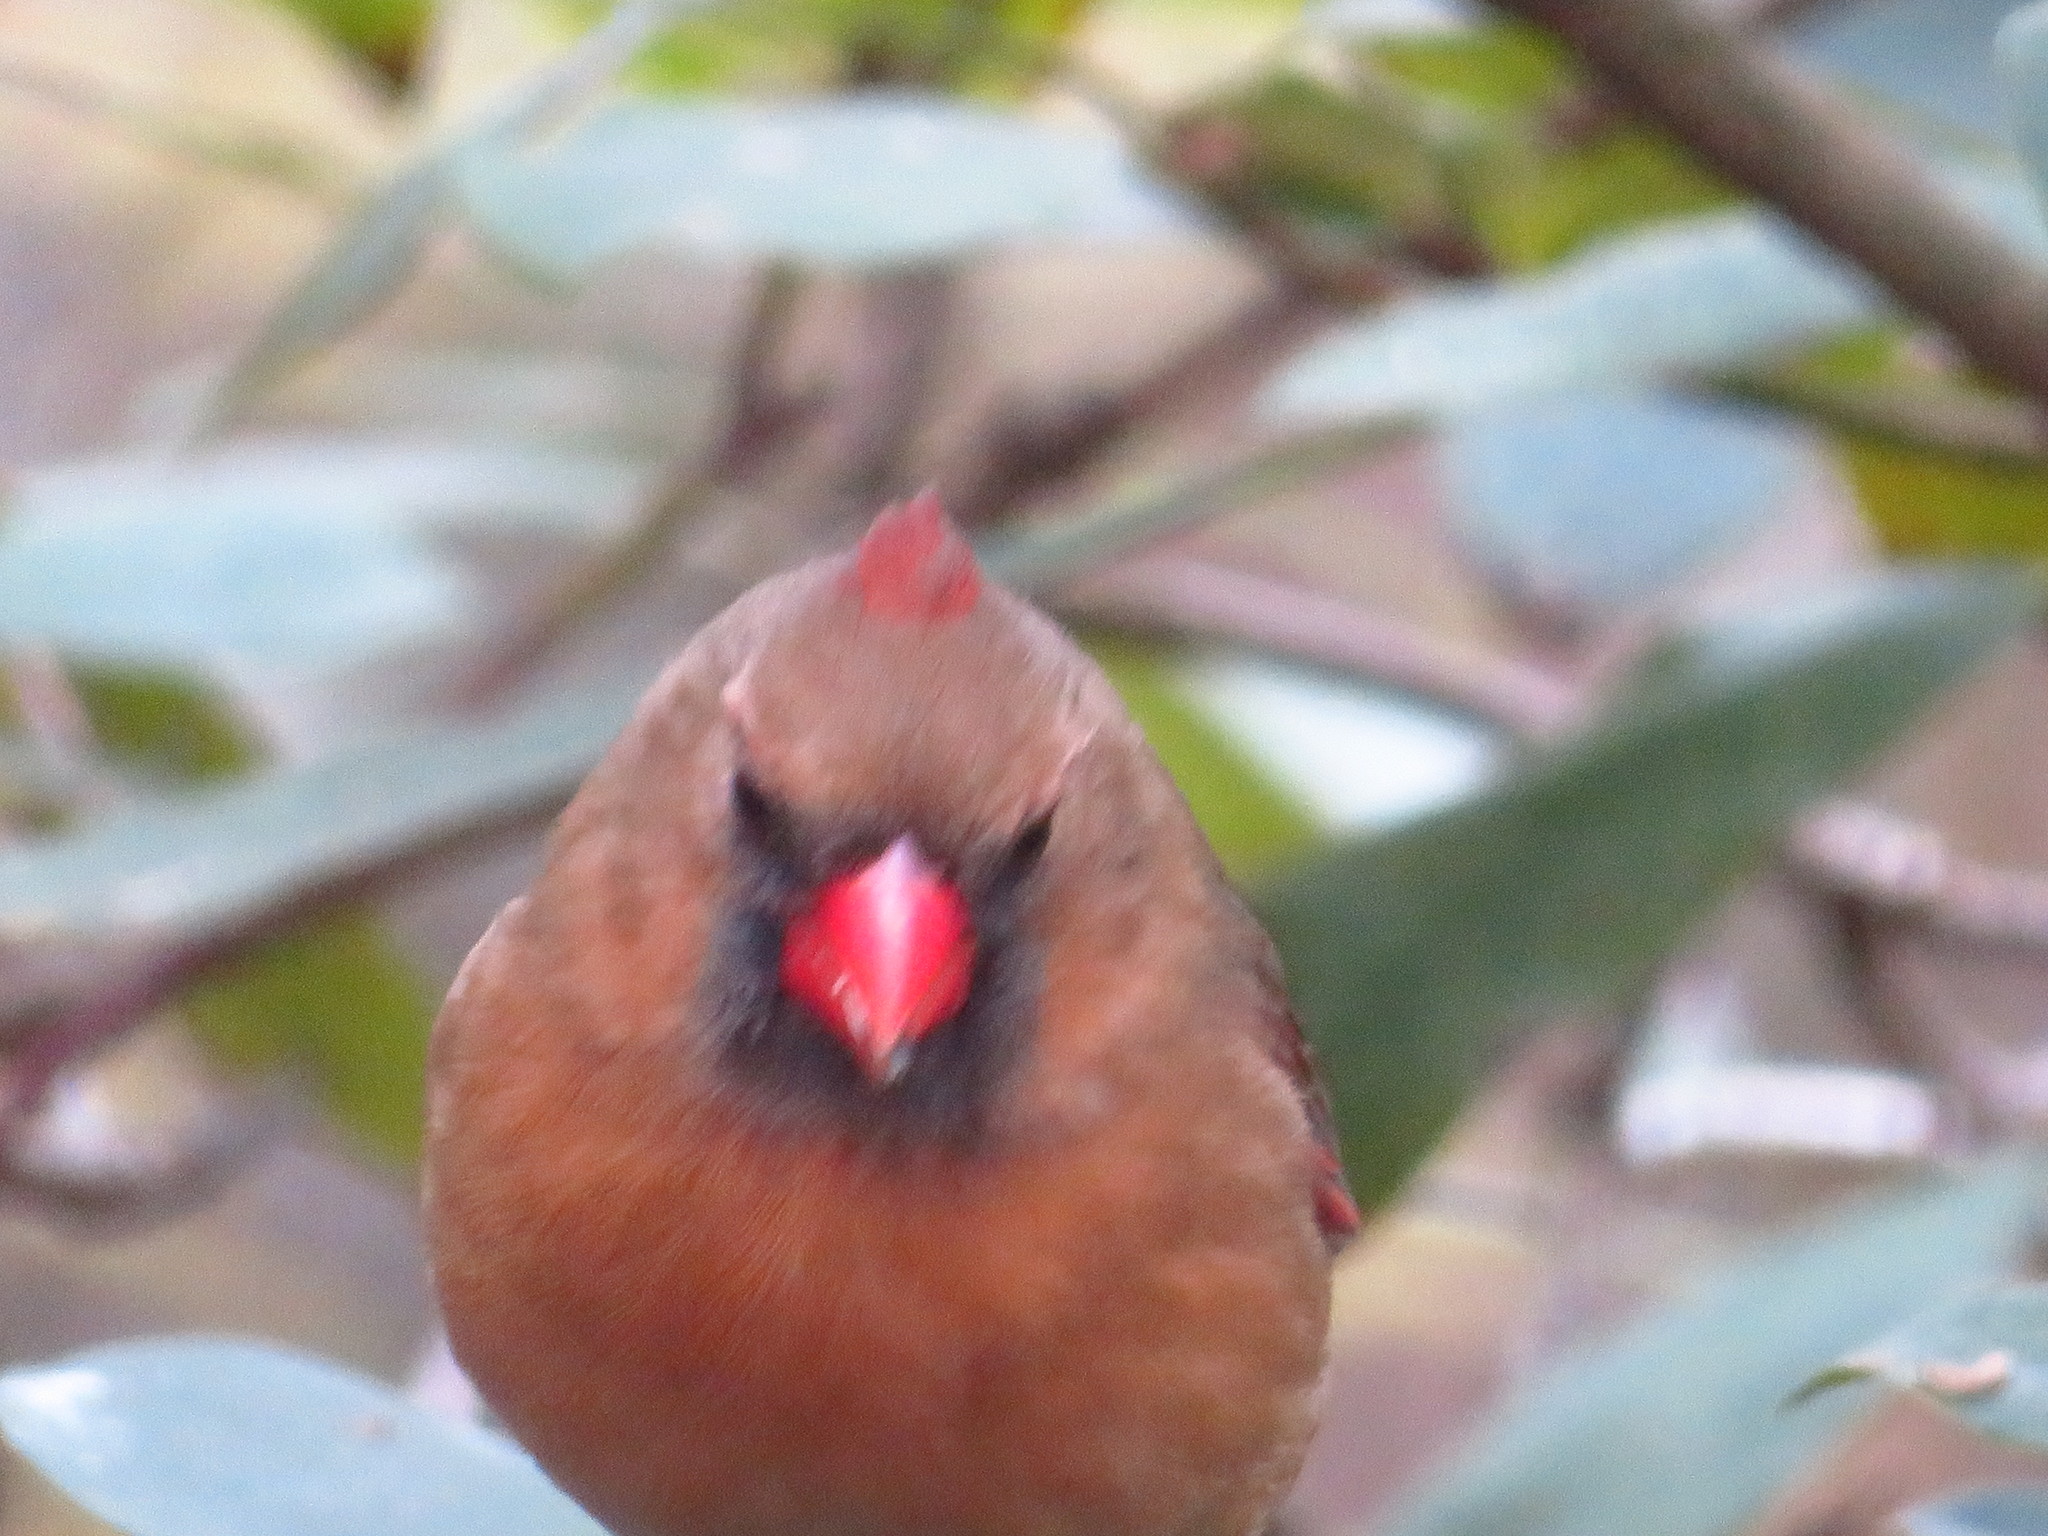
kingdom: Animalia
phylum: Chordata
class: Aves
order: Passeriformes
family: Cardinalidae
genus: Cardinalis
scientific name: Cardinalis cardinalis
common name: Northern cardinal
